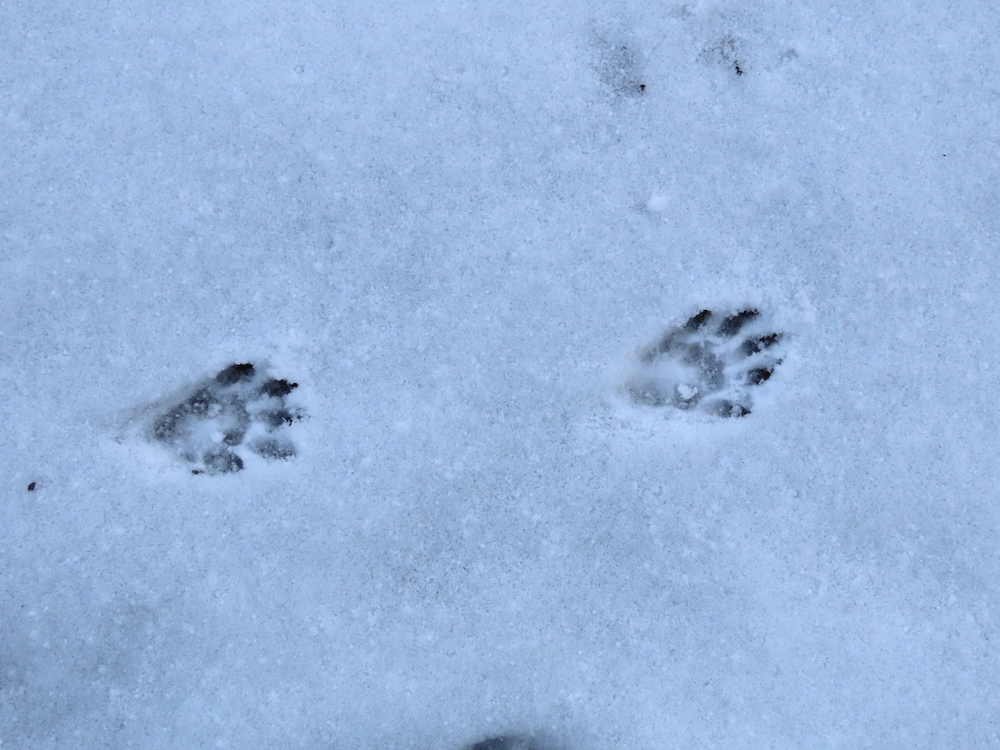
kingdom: Animalia
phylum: Chordata
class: Mammalia
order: Carnivora
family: Procyonidae
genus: Procyon
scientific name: Procyon lotor
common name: Raccoon
